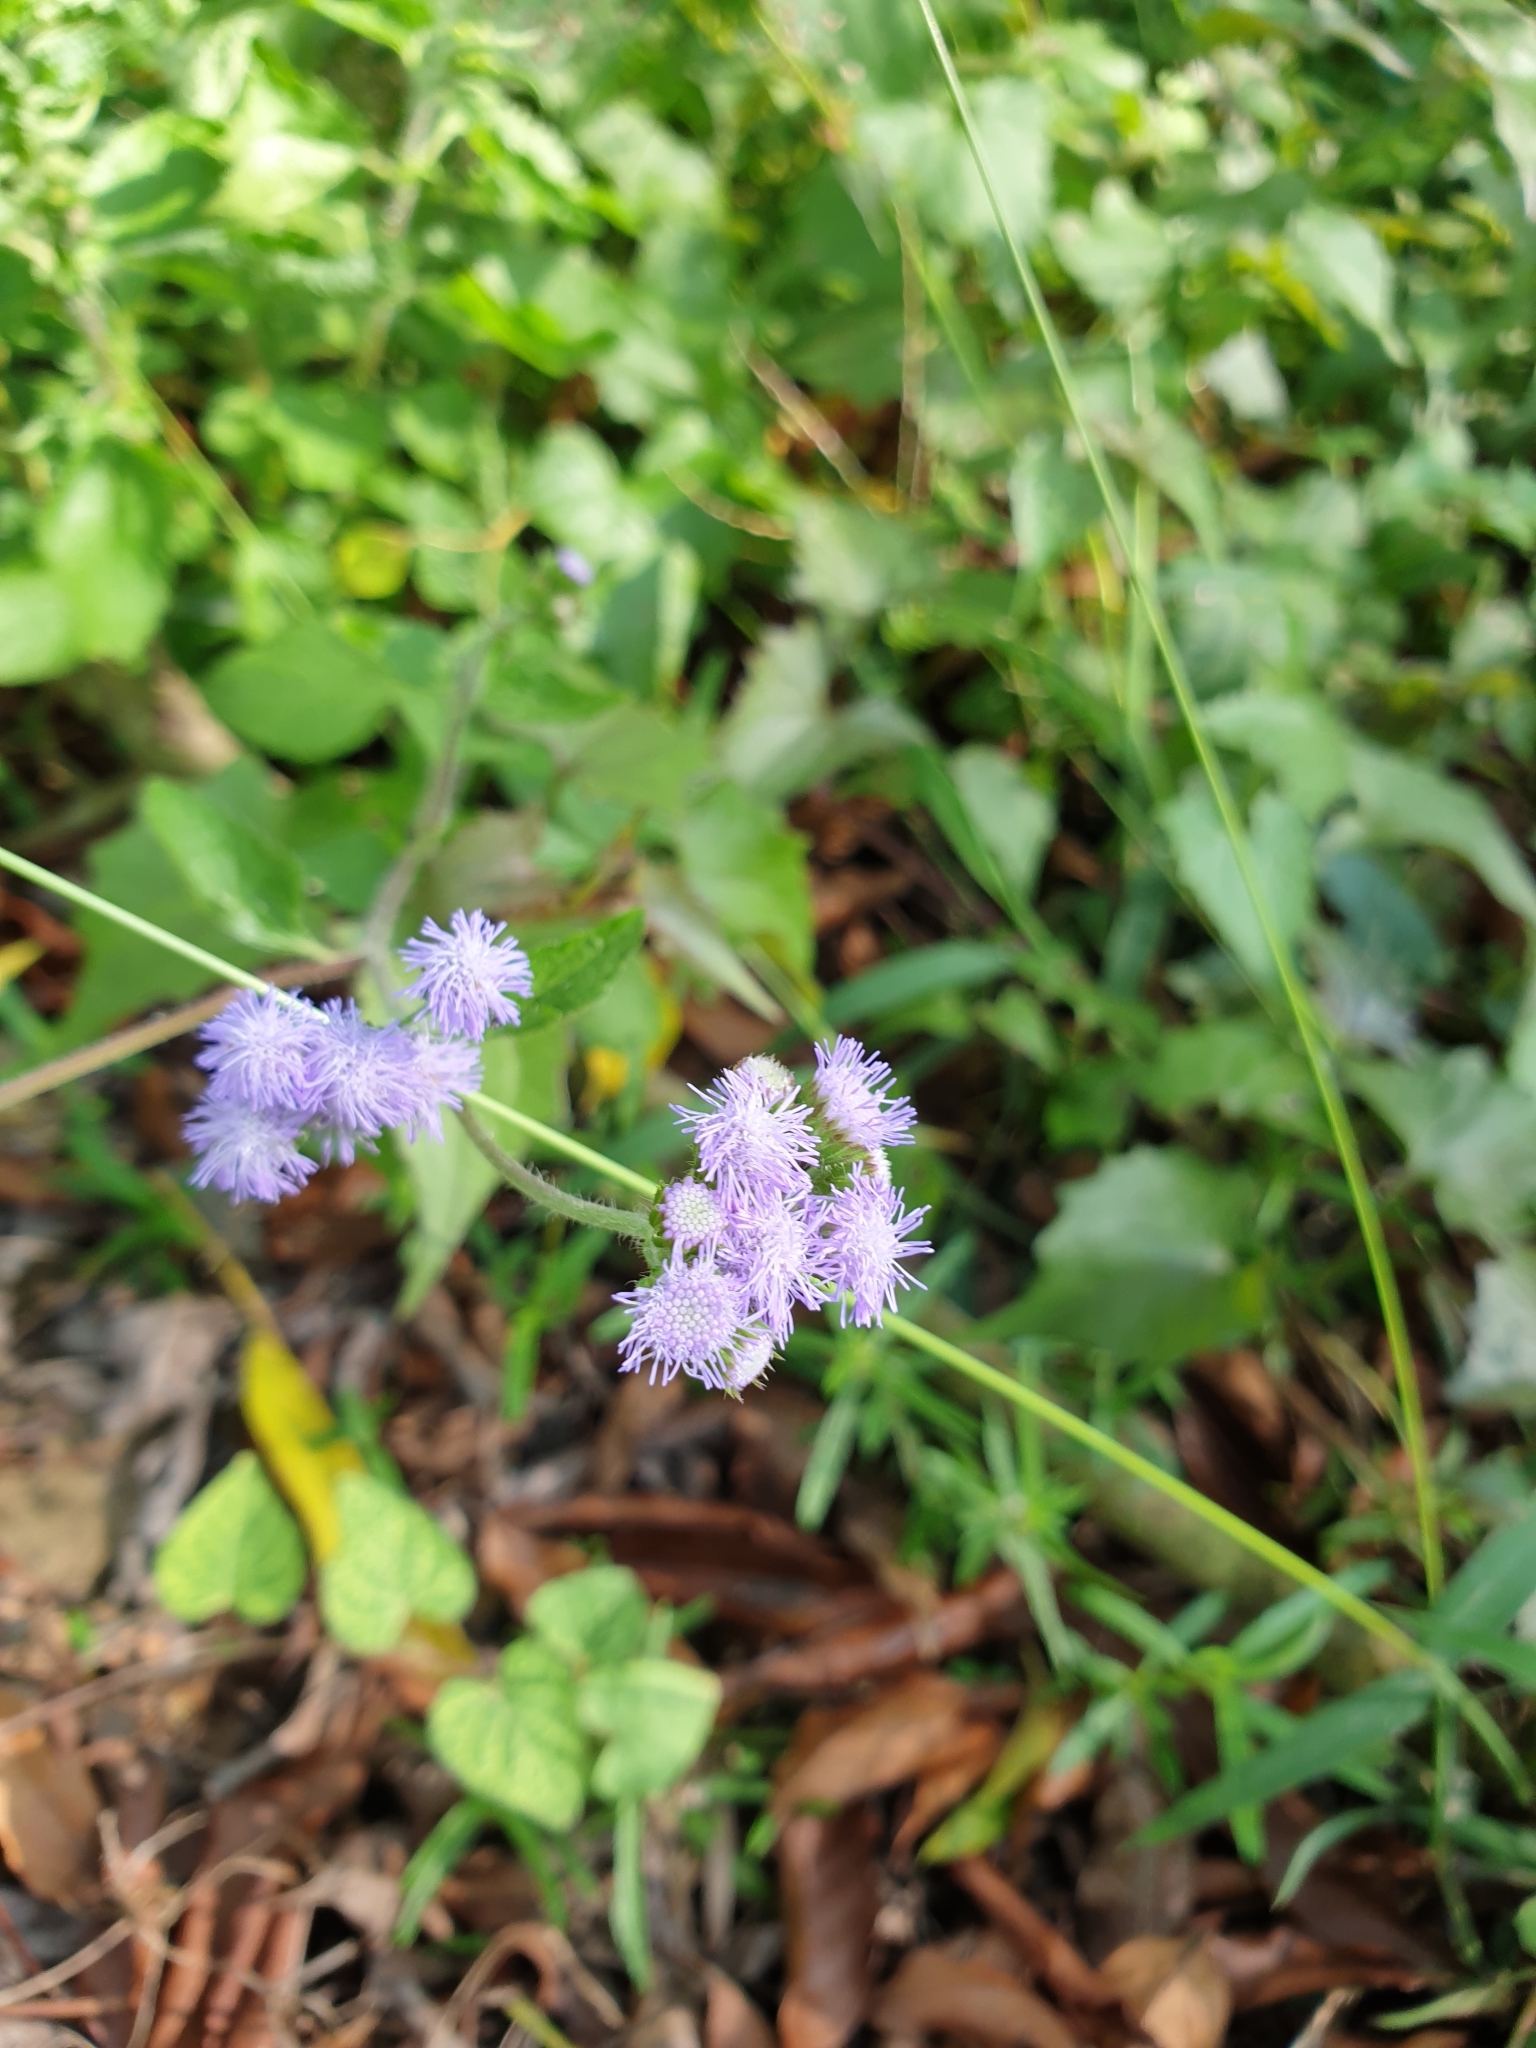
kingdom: Plantae
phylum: Tracheophyta
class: Magnoliopsida
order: Asterales
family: Asteraceae
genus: Ageratum
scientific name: Ageratum houstonianum
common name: Bluemink
